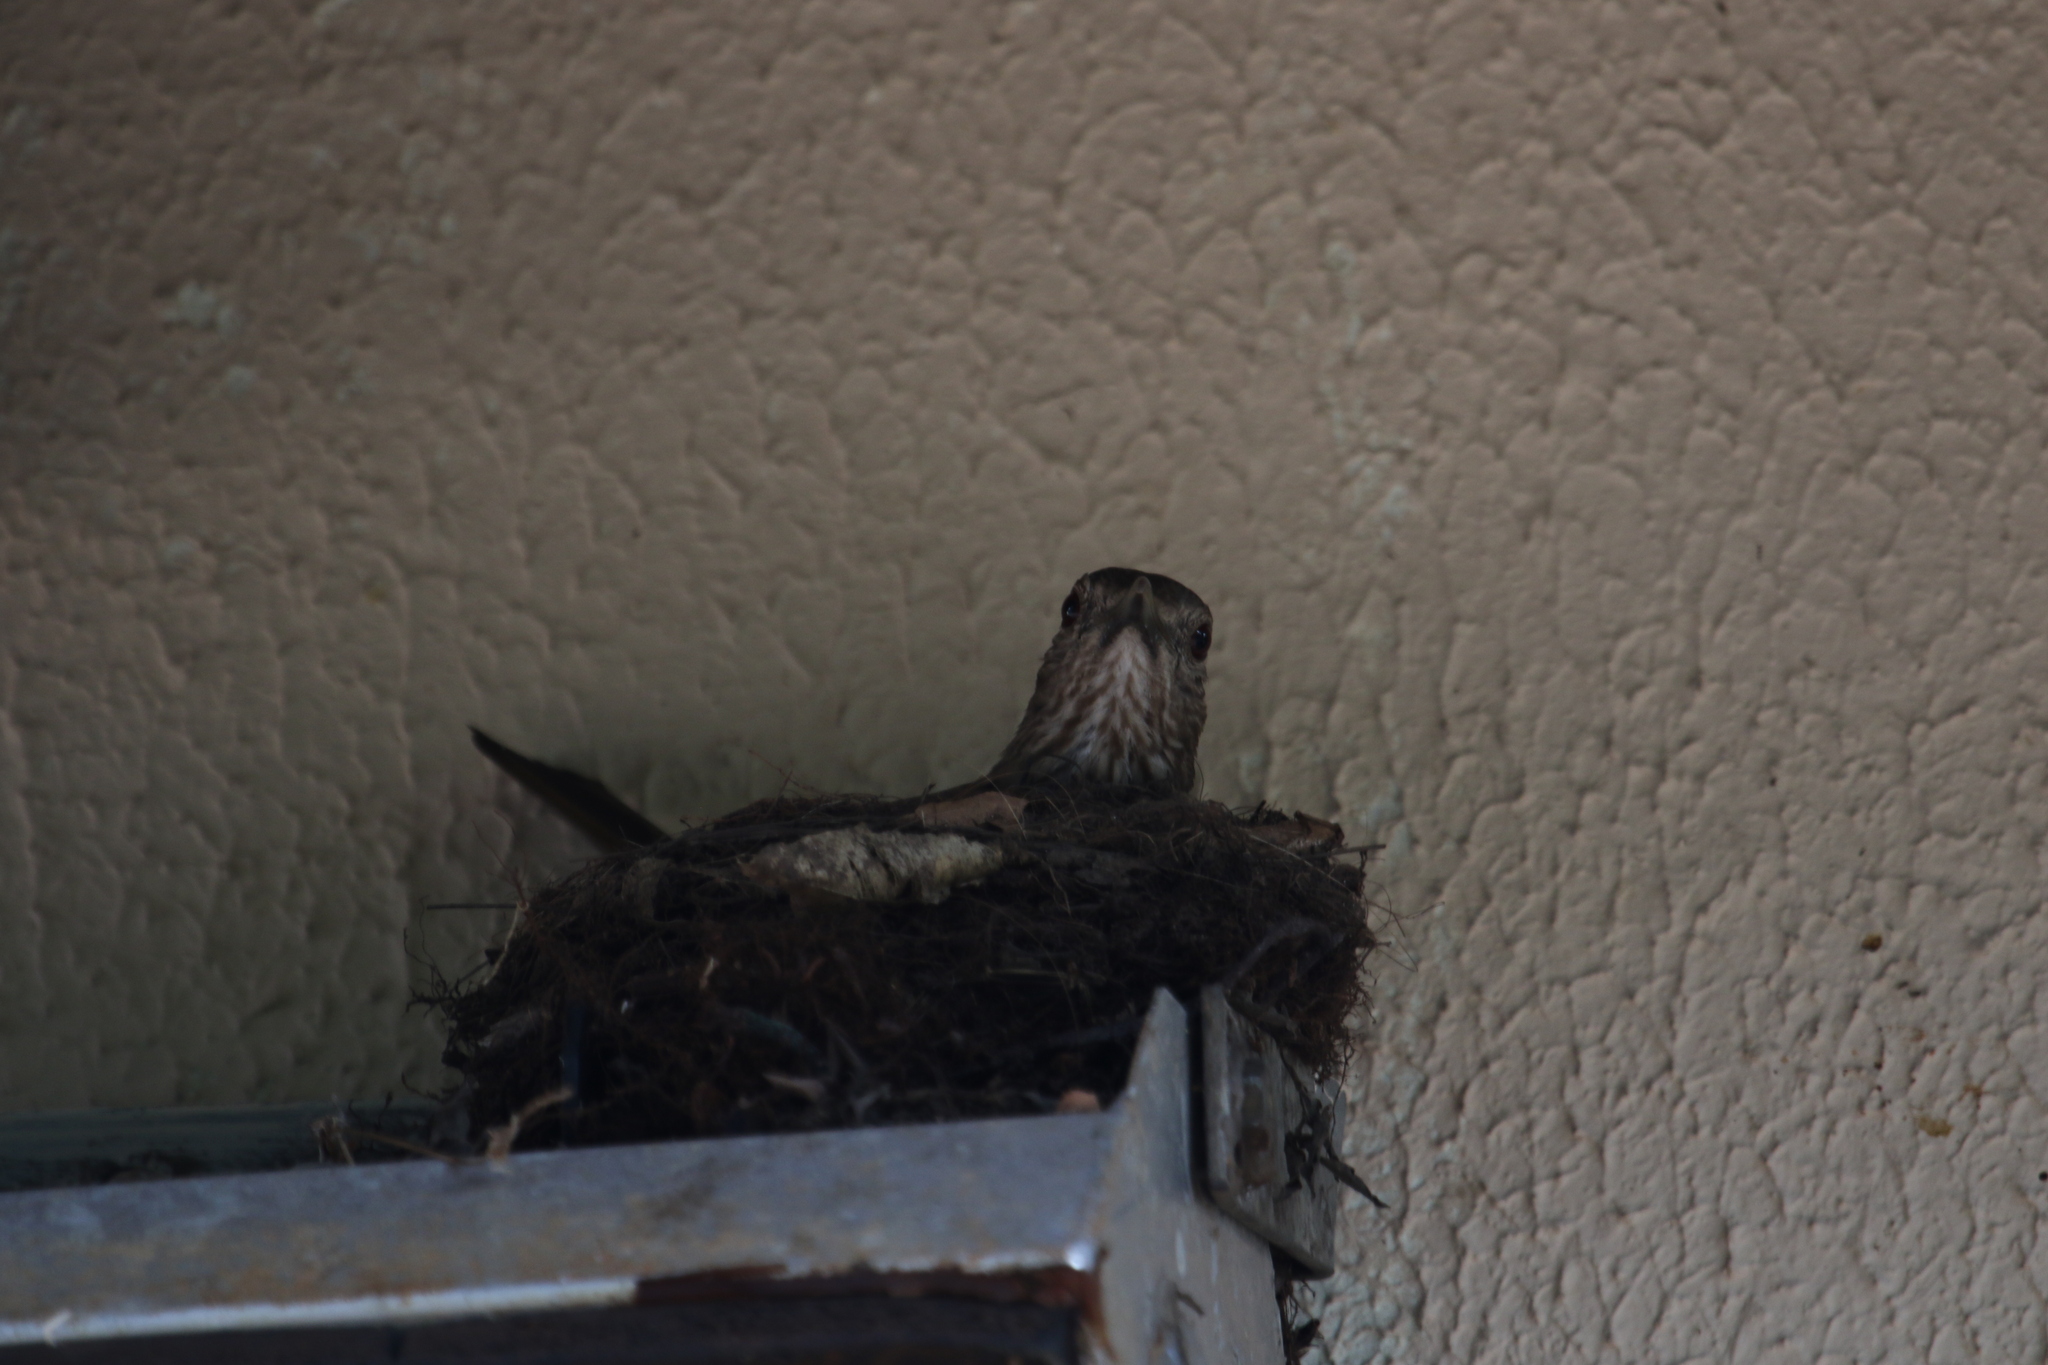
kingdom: Animalia
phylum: Chordata
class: Aves
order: Passeriformes
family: Turdidae
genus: Turdus
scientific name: Turdus leucomelas
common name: Pale-breasted thrush
